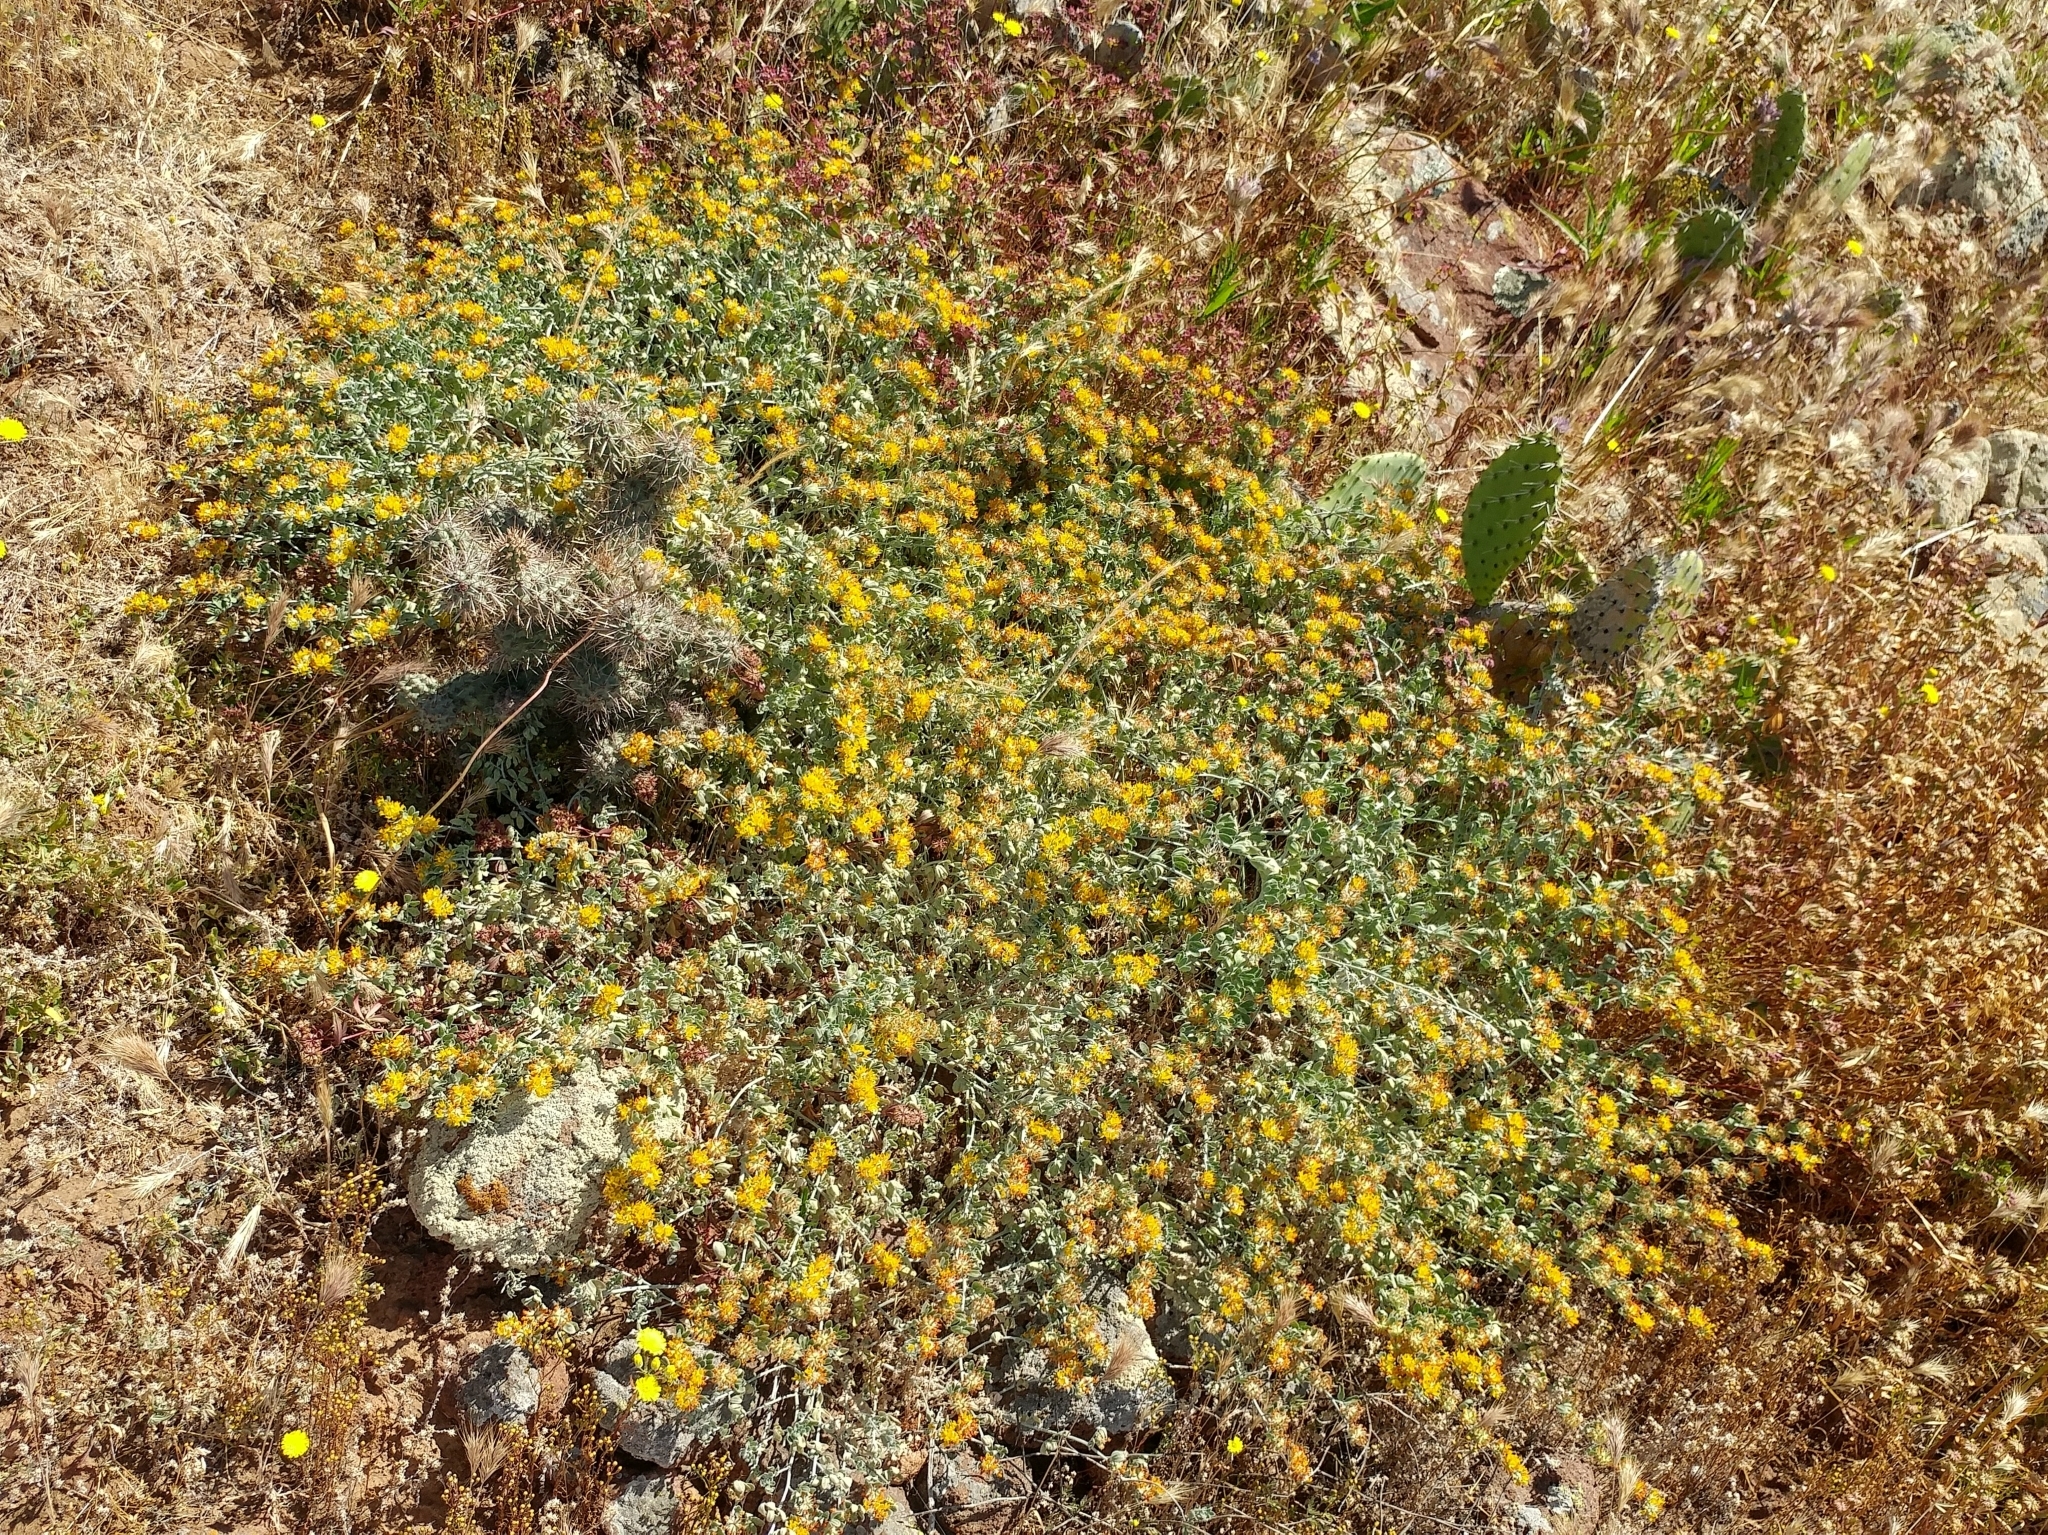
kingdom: Plantae
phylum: Tracheophyta
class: Magnoliopsida
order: Fabales
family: Fabaceae
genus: Acmispon
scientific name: Acmispon argophyllus
